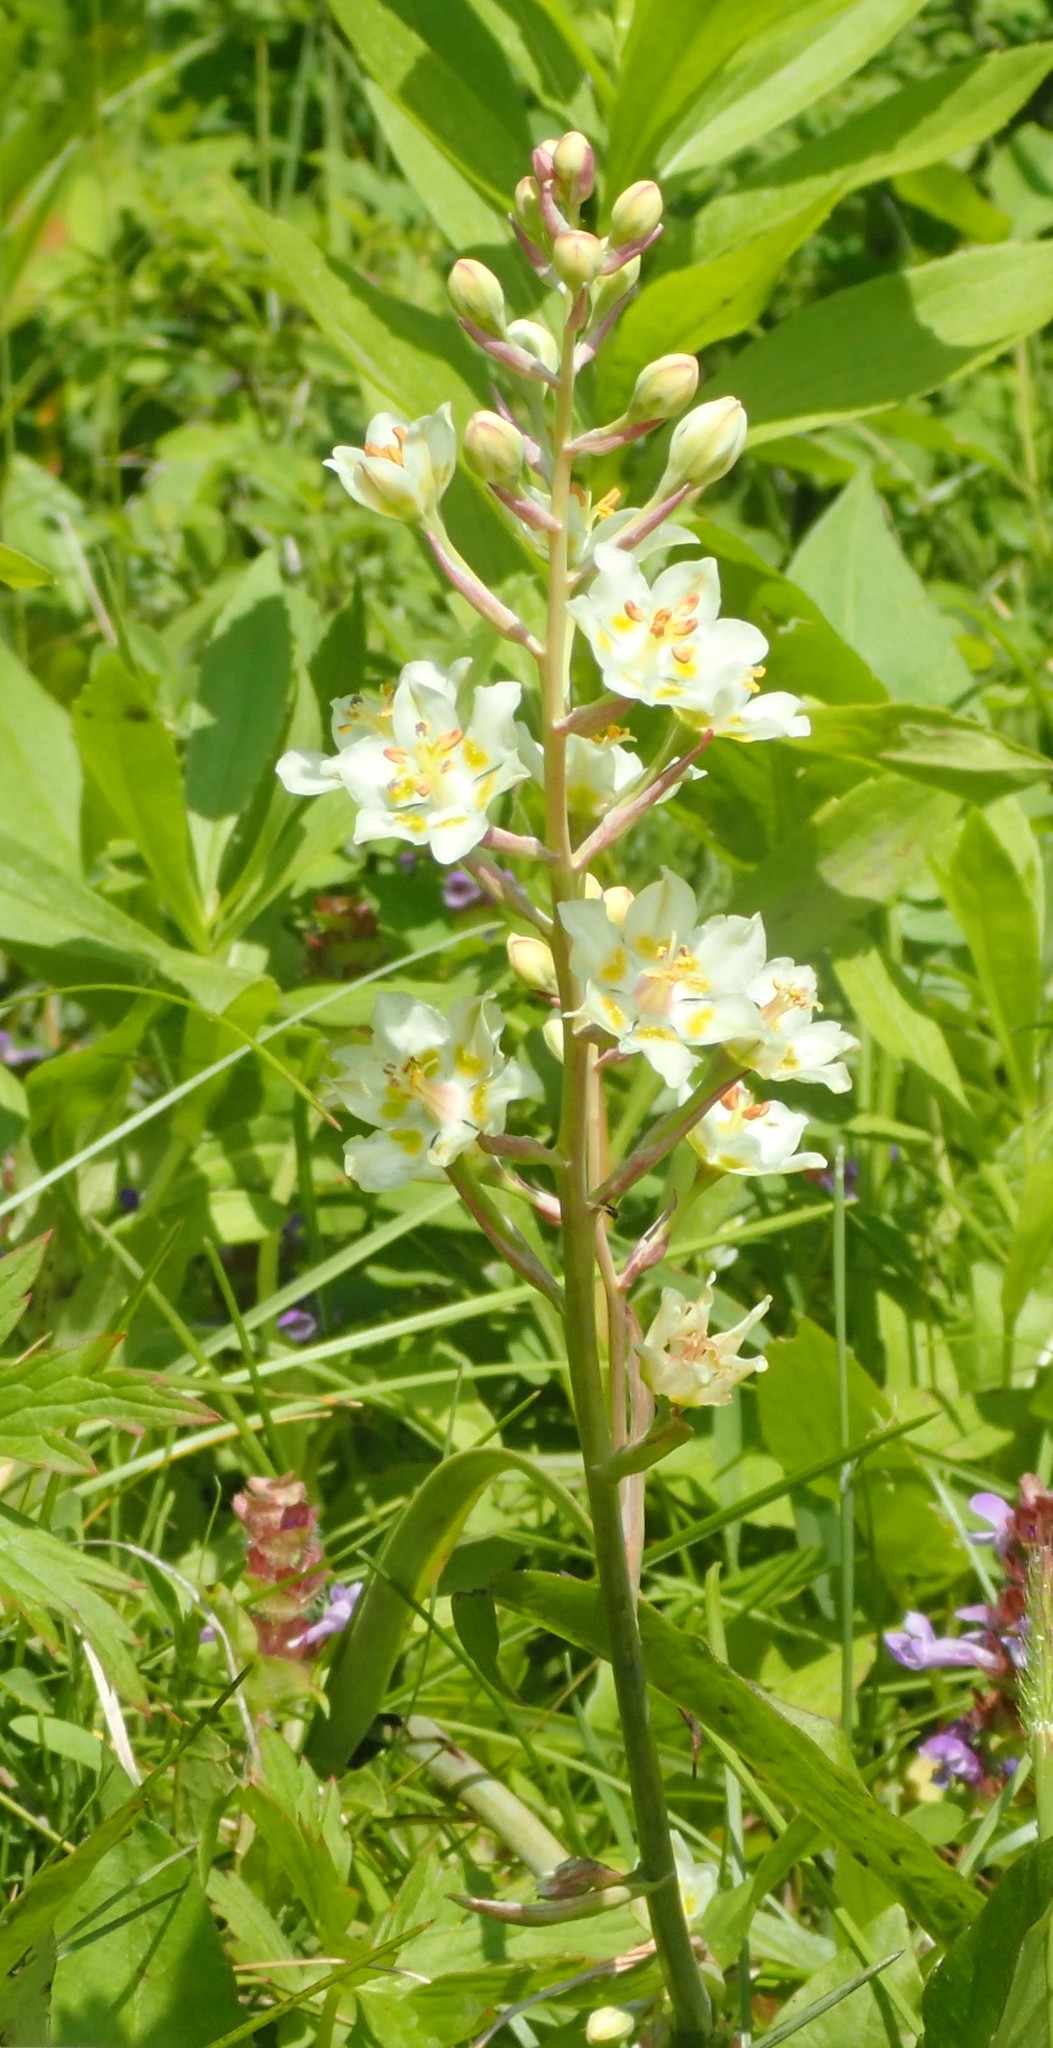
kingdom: Plantae
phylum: Tracheophyta
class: Liliopsida
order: Liliales
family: Melanthiaceae
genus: Anticlea
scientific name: Anticlea elegans
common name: Mountain death camas
